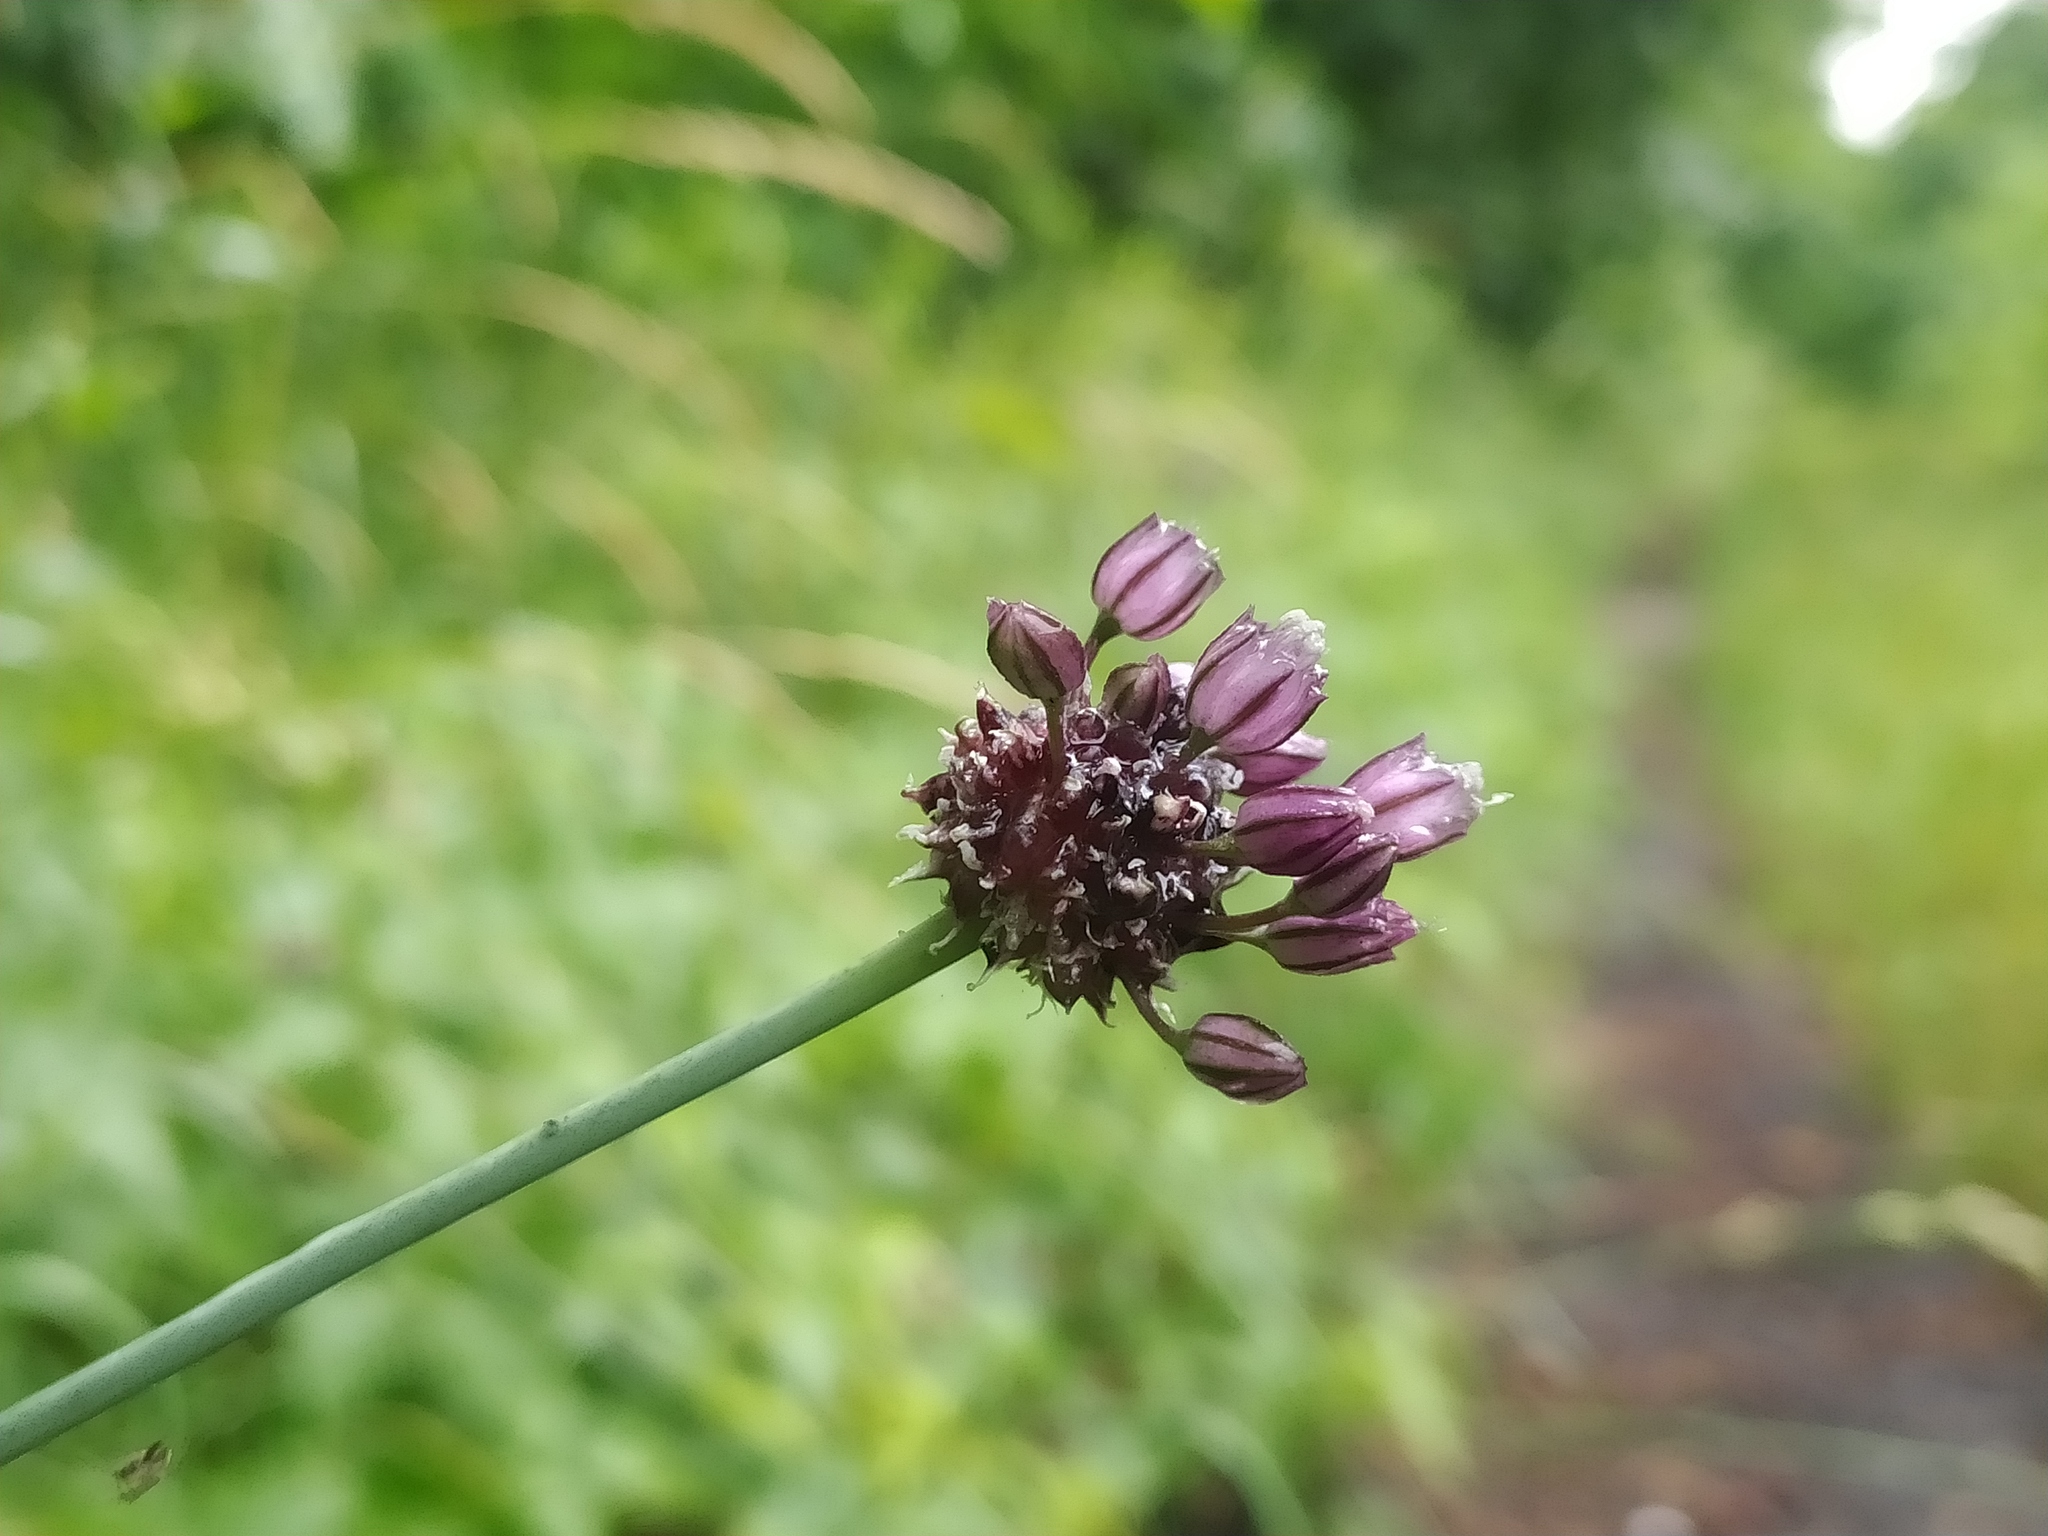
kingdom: Plantae
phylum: Tracheophyta
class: Liliopsida
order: Asparagales
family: Amaryllidaceae
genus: Allium
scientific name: Allium scorodoprasum
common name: Sand leek
